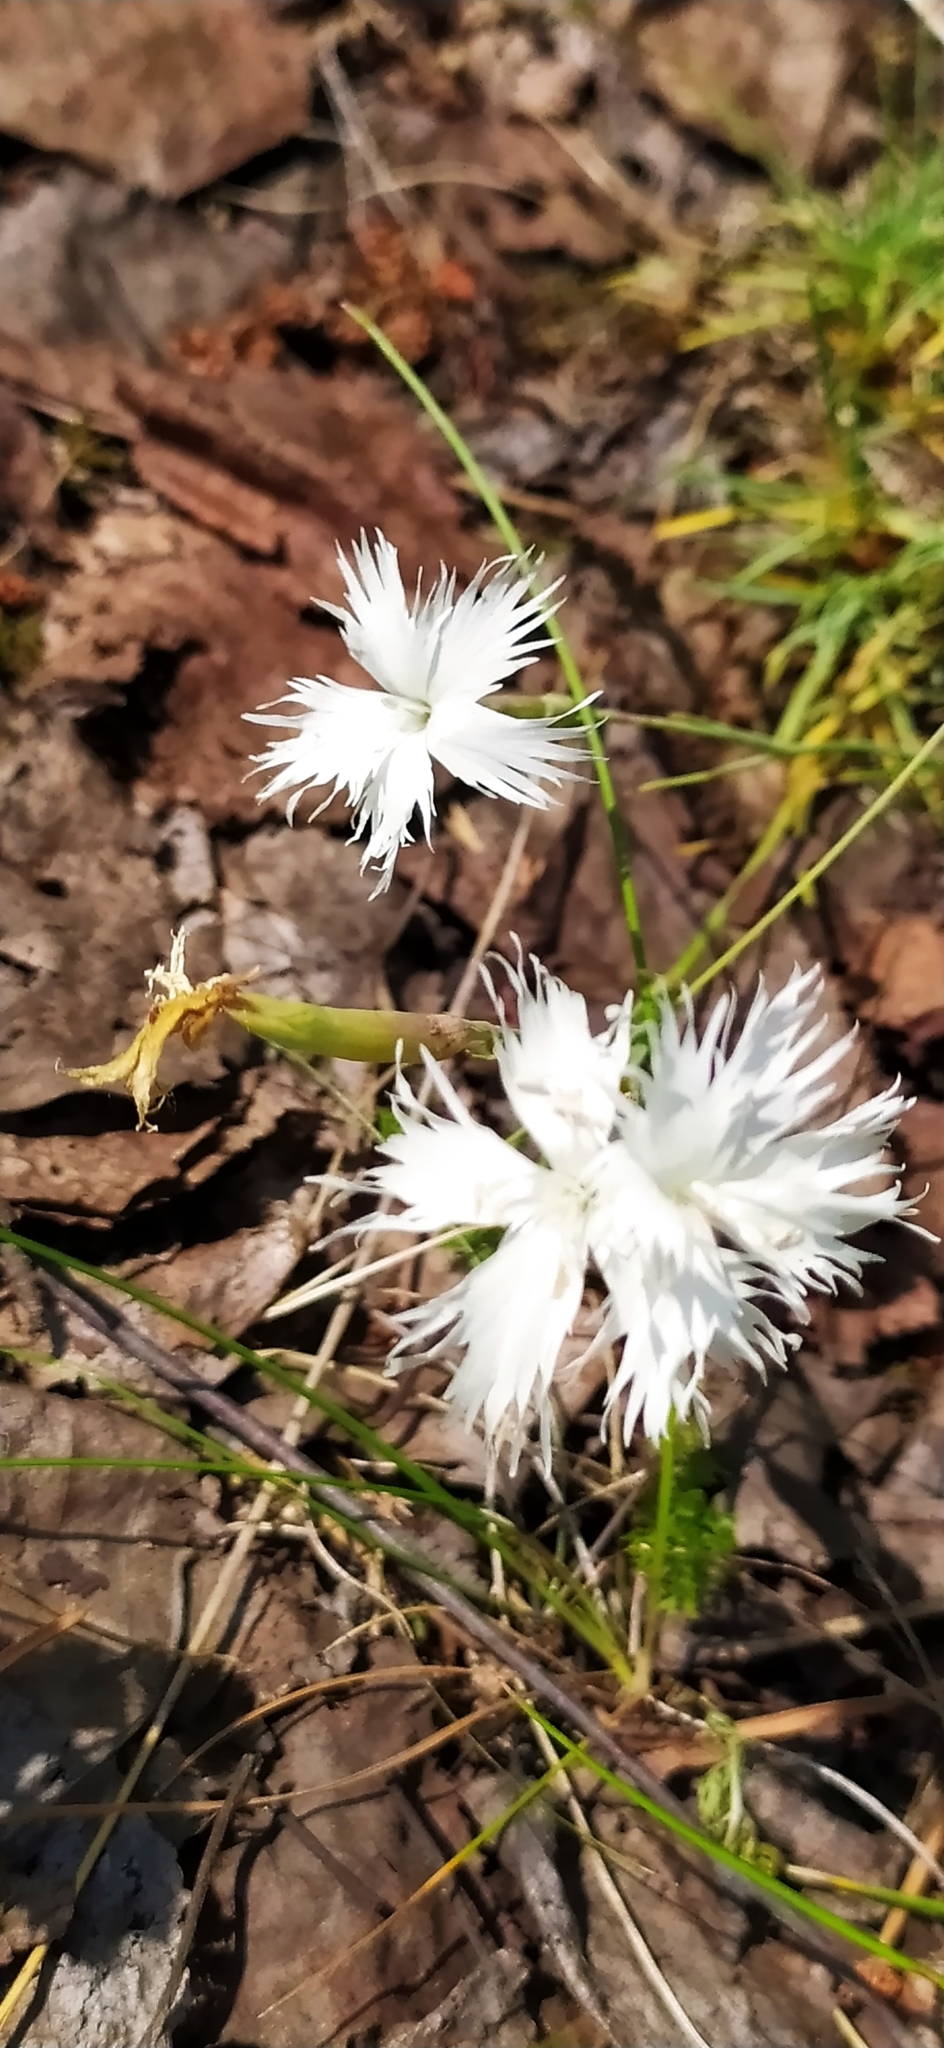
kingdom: Plantae
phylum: Tracheophyta
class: Magnoliopsida
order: Caryophyllales
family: Caryophyllaceae
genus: Dianthus
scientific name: Dianthus acicularis
